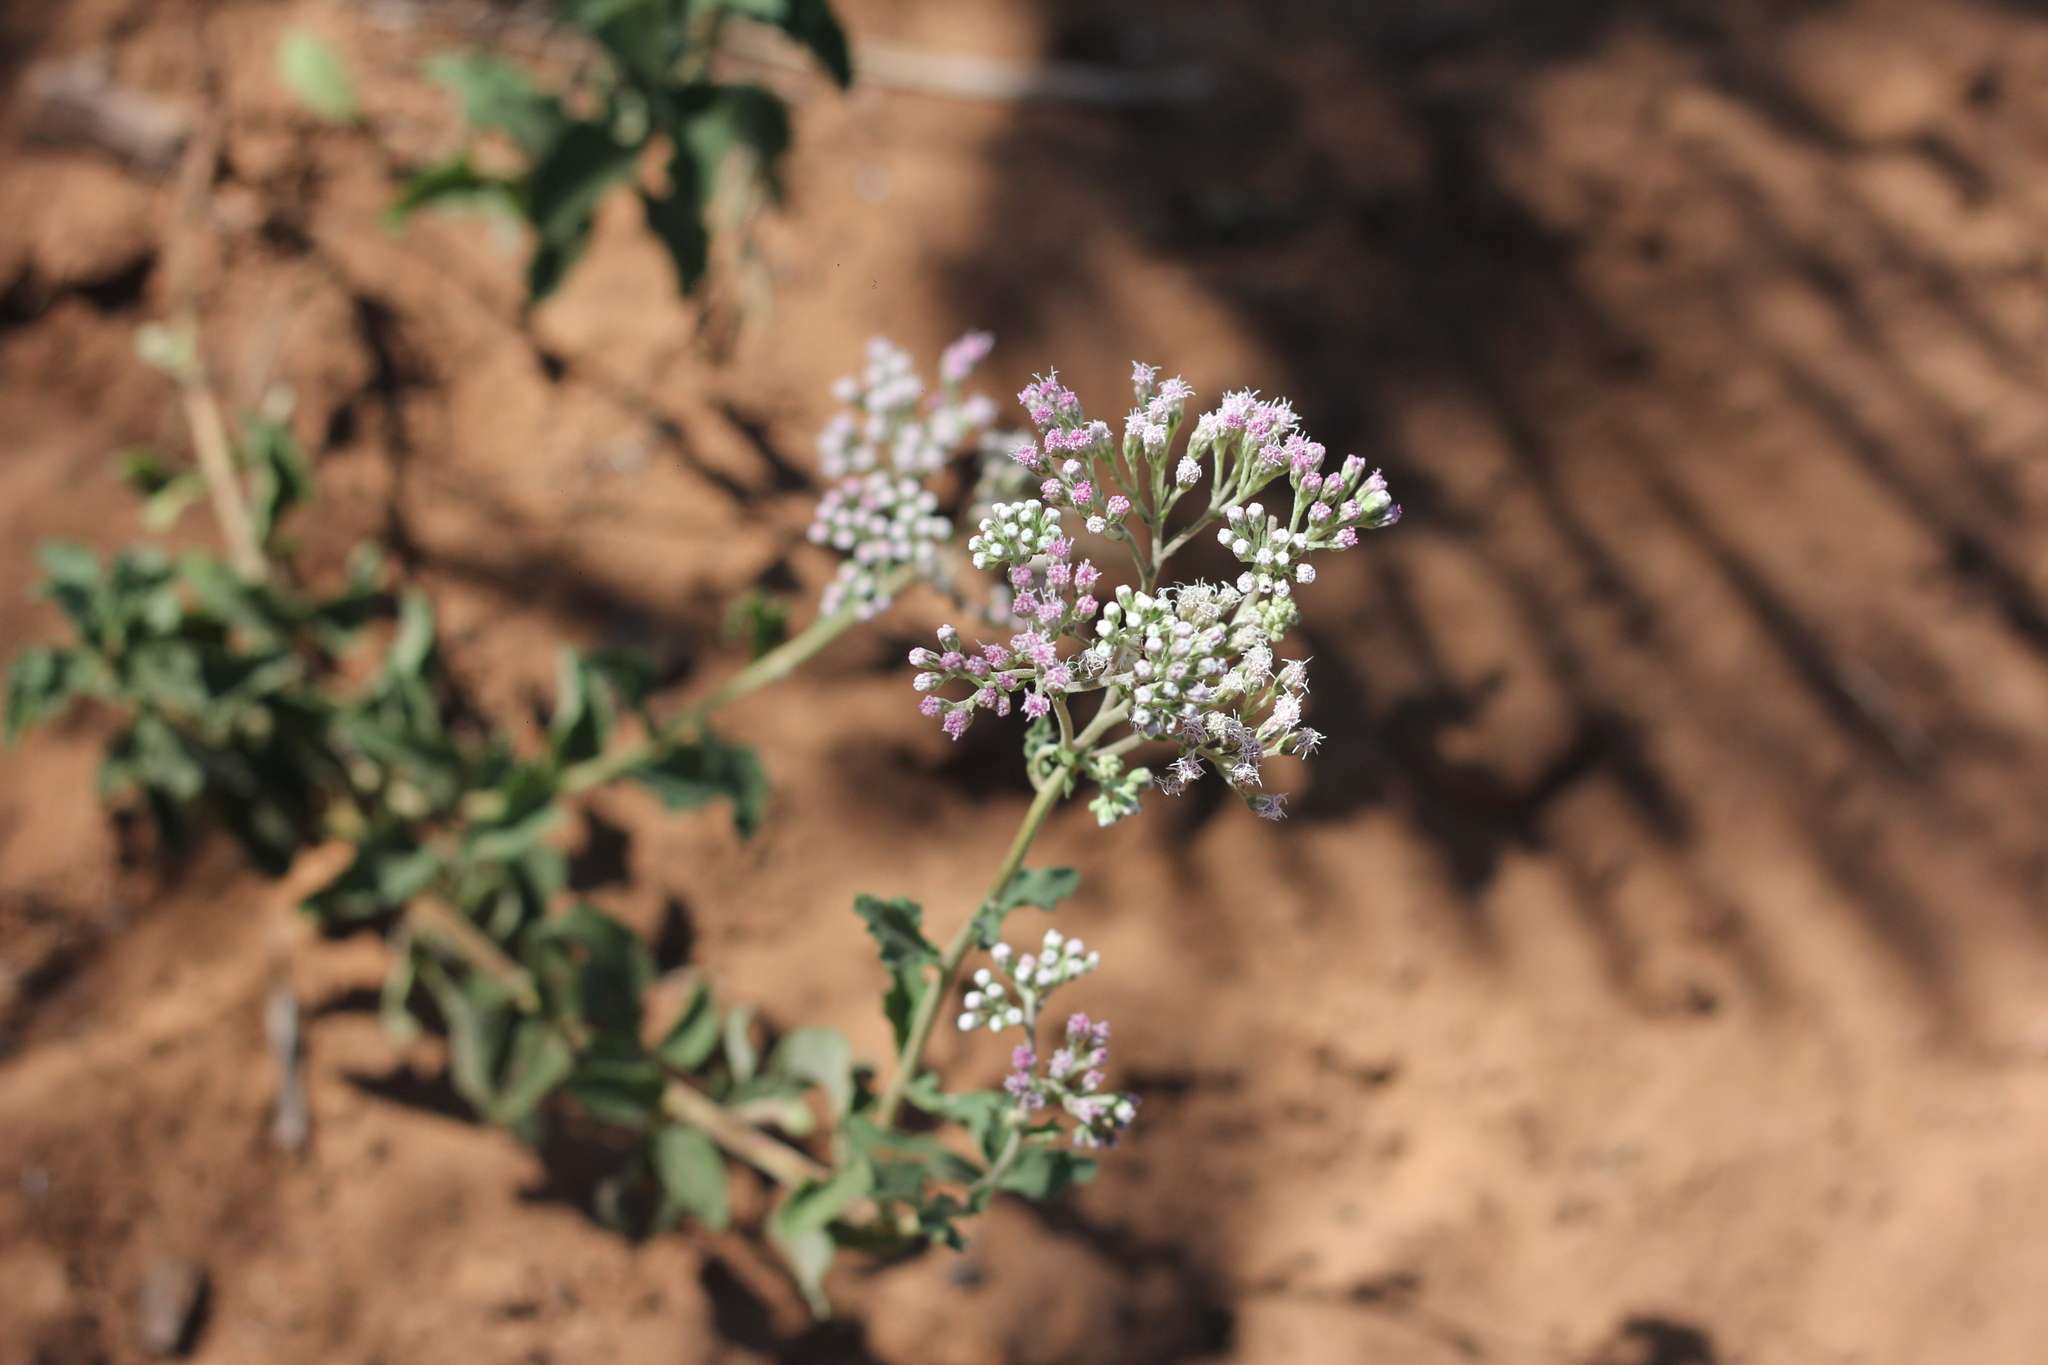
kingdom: Plantae
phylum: Tracheophyta
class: Magnoliopsida
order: Asterales
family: Asteraceae
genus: Gyptis
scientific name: Gyptis artemisifolia
